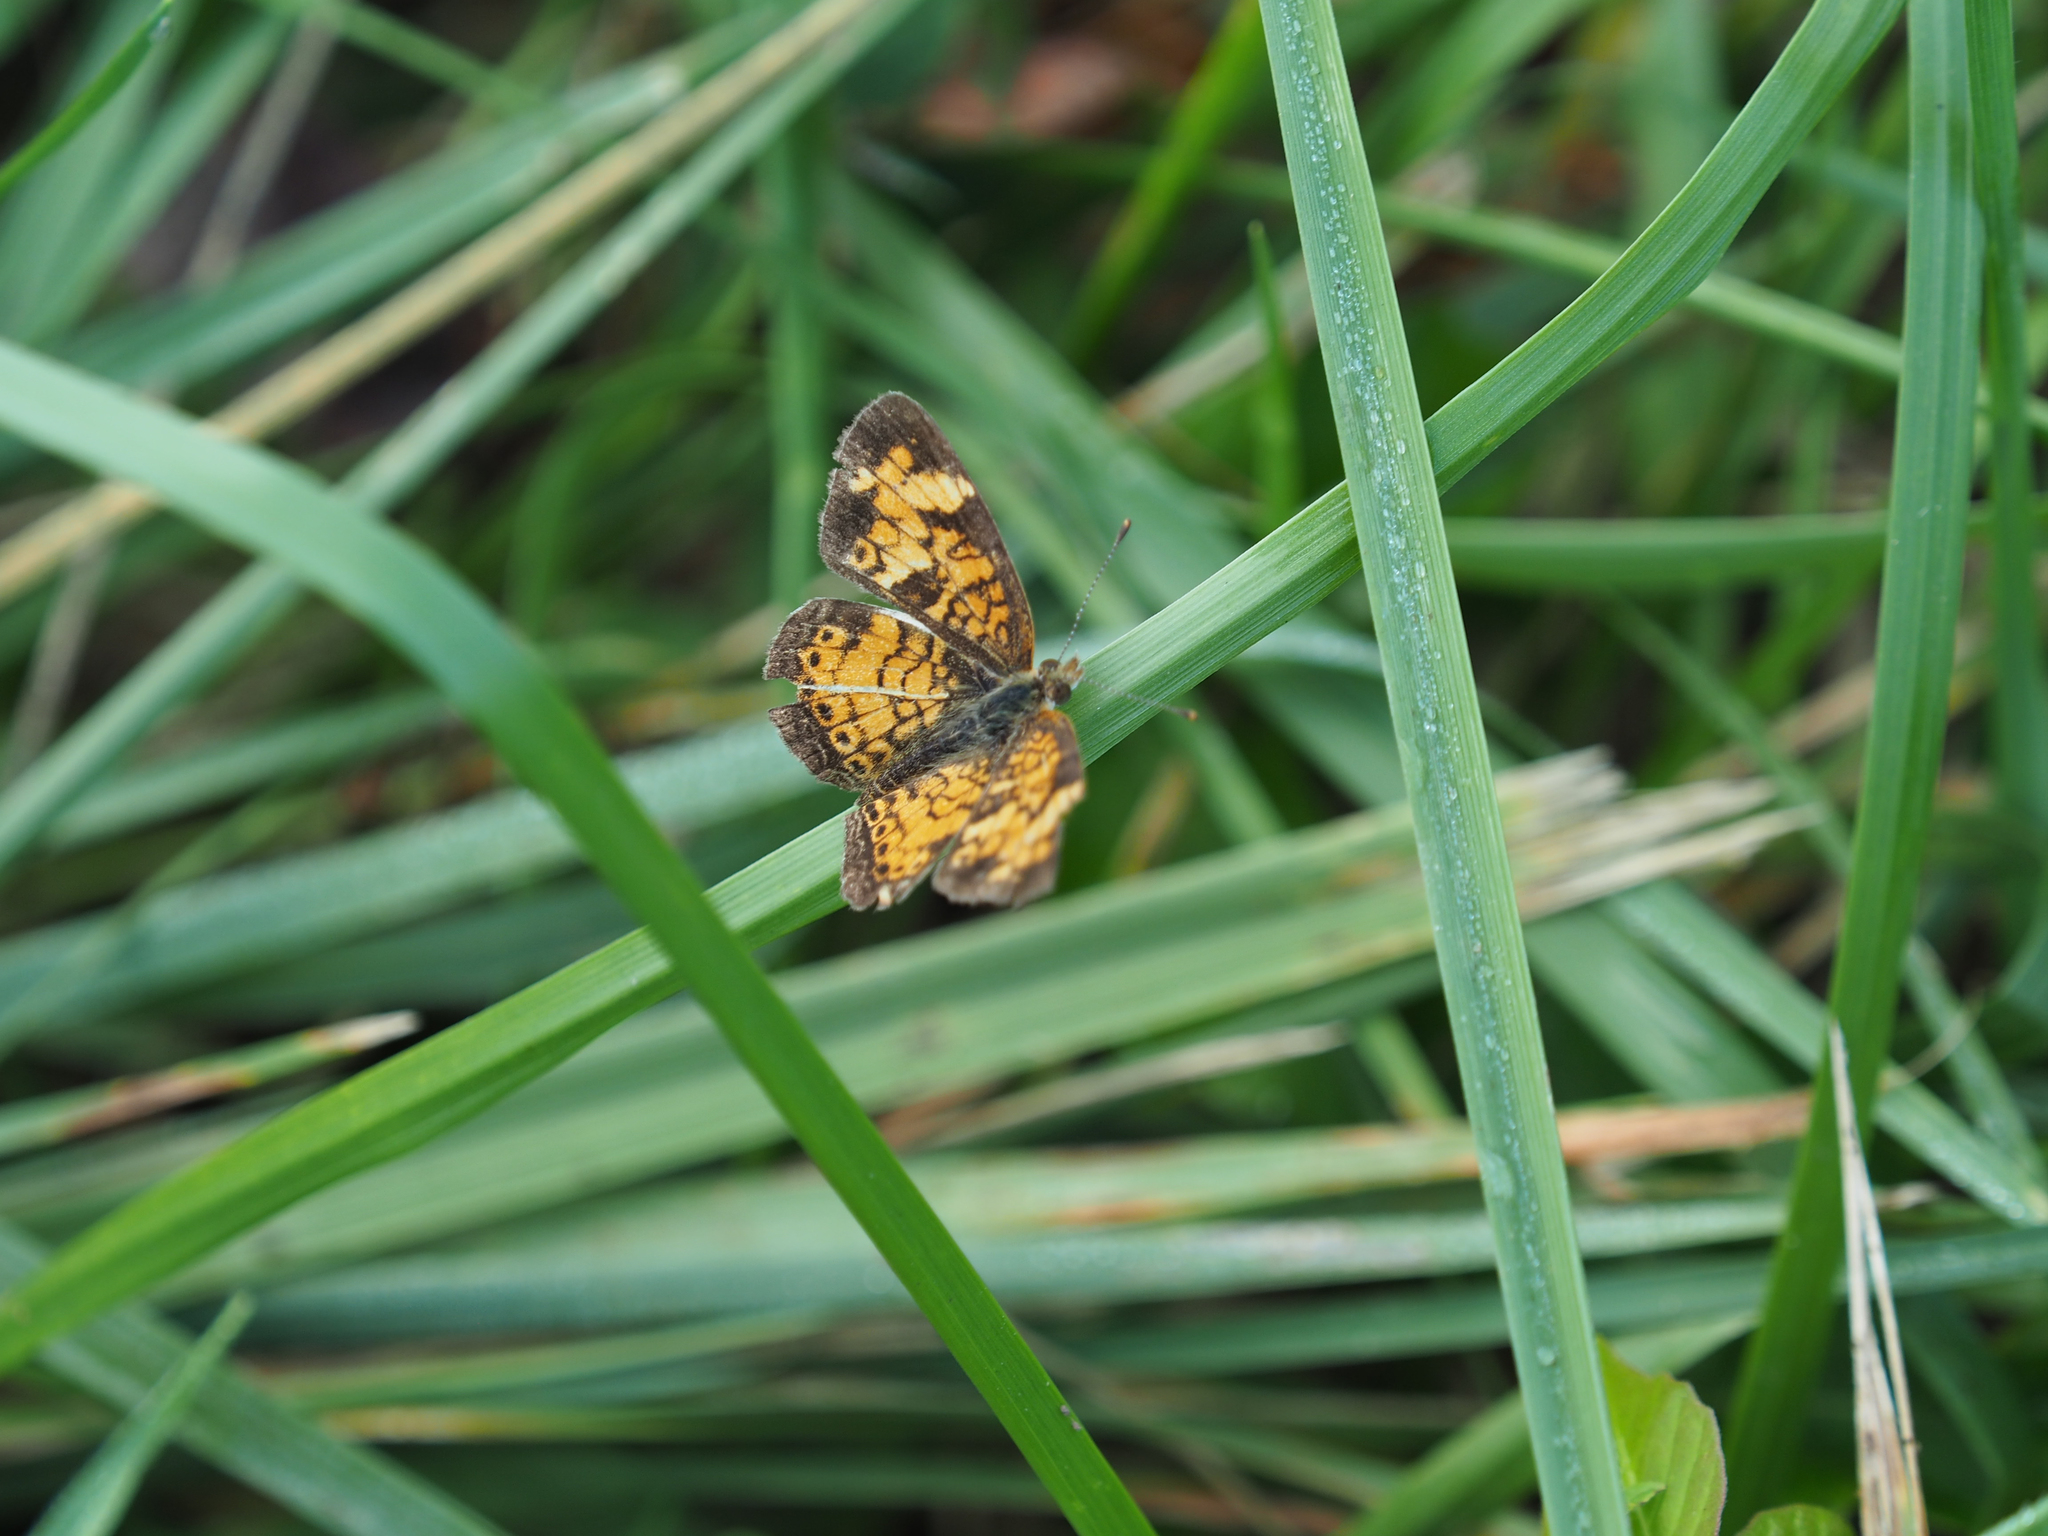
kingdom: Animalia
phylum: Arthropoda
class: Insecta
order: Lepidoptera
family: Nymphalidae
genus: Phyciodes
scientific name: Phyciodes tharos
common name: Pearl crescent
